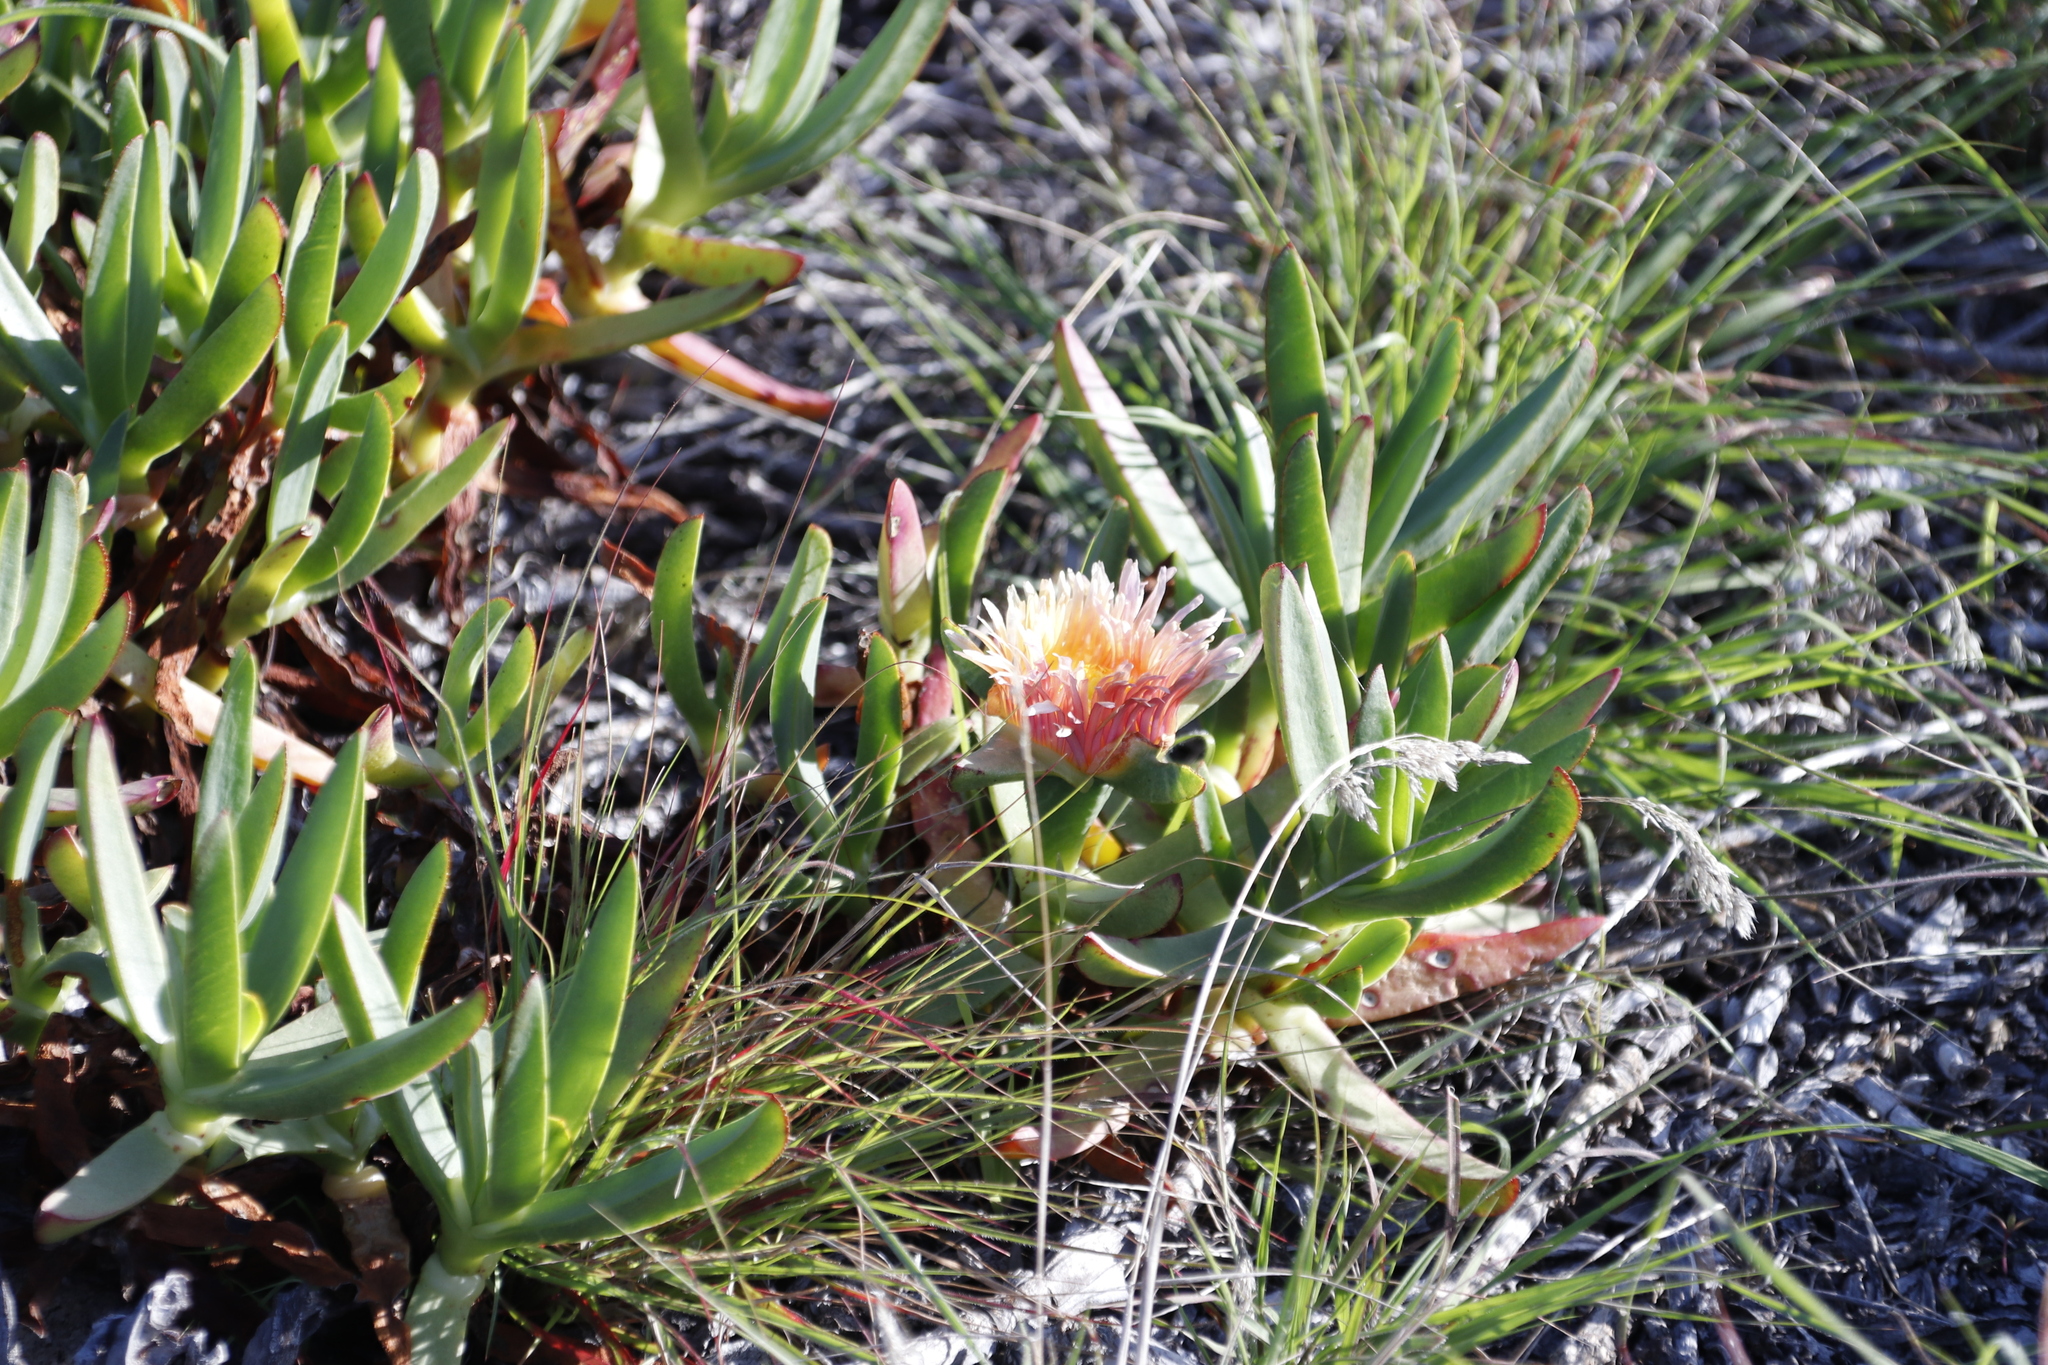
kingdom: Plantae
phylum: Tracheophyta
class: Magnoliopsida
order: Caryophyllales
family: Aizoaceae
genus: Carpobrotus
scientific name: Carpobrotus edulis
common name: Hottentot-fig
